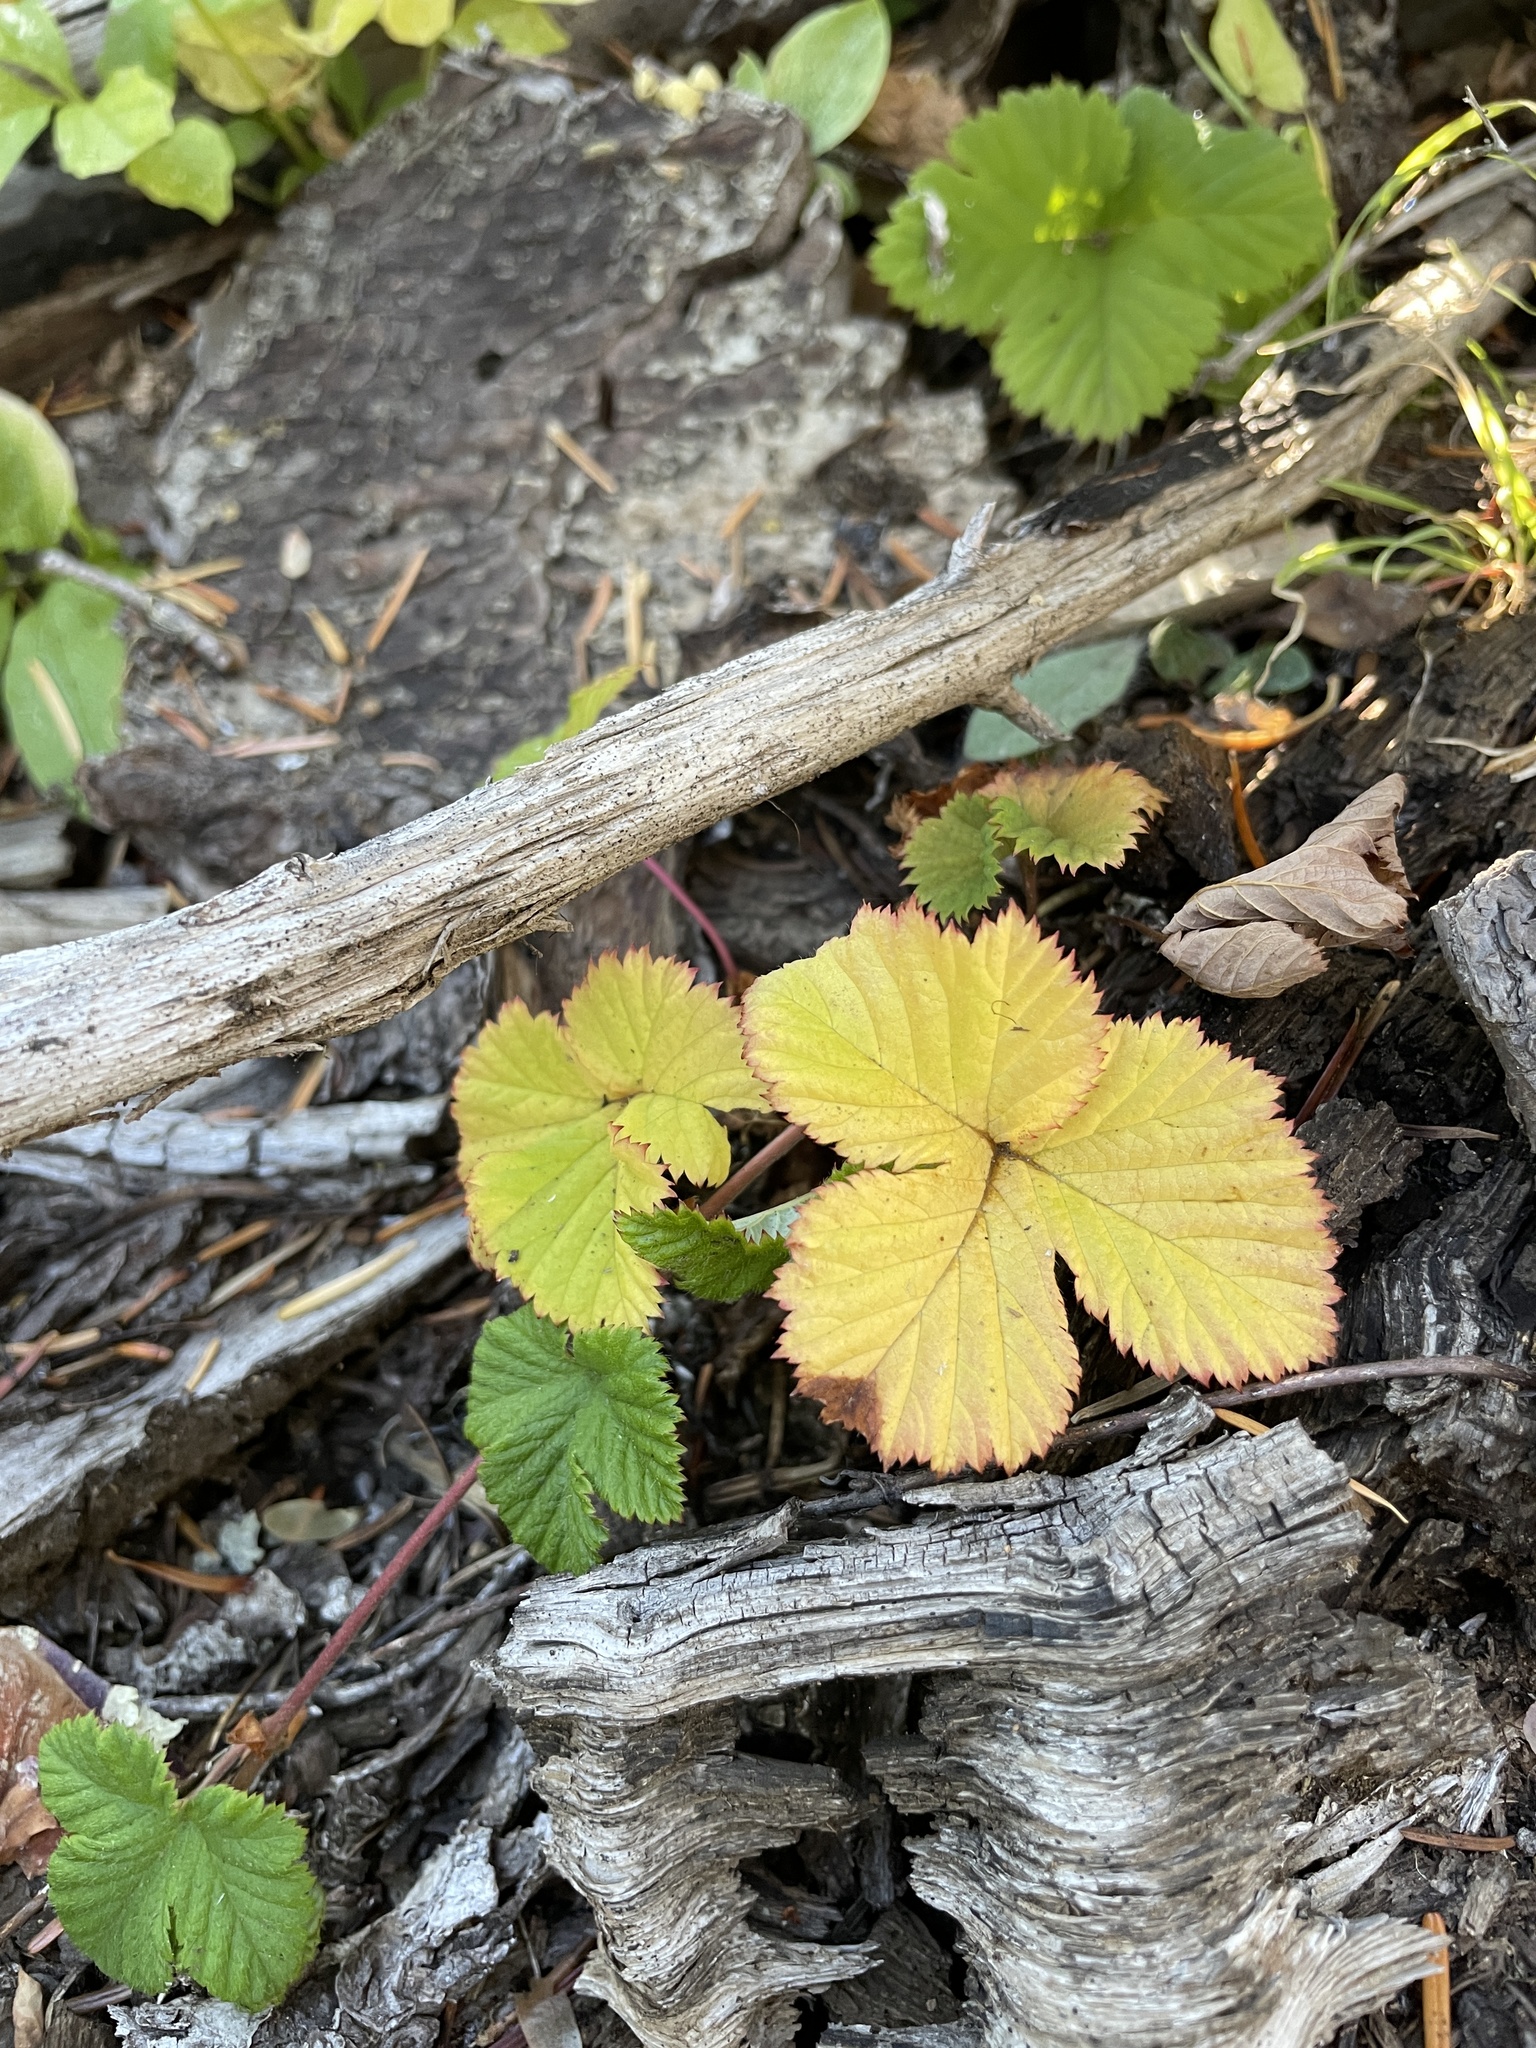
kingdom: Plantae
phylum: Tracheophyta
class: Magnoliopsida
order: Rosales
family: Rosaceae
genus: Rubus
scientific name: Rubus lasiococcus
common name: Dwarf bramble
